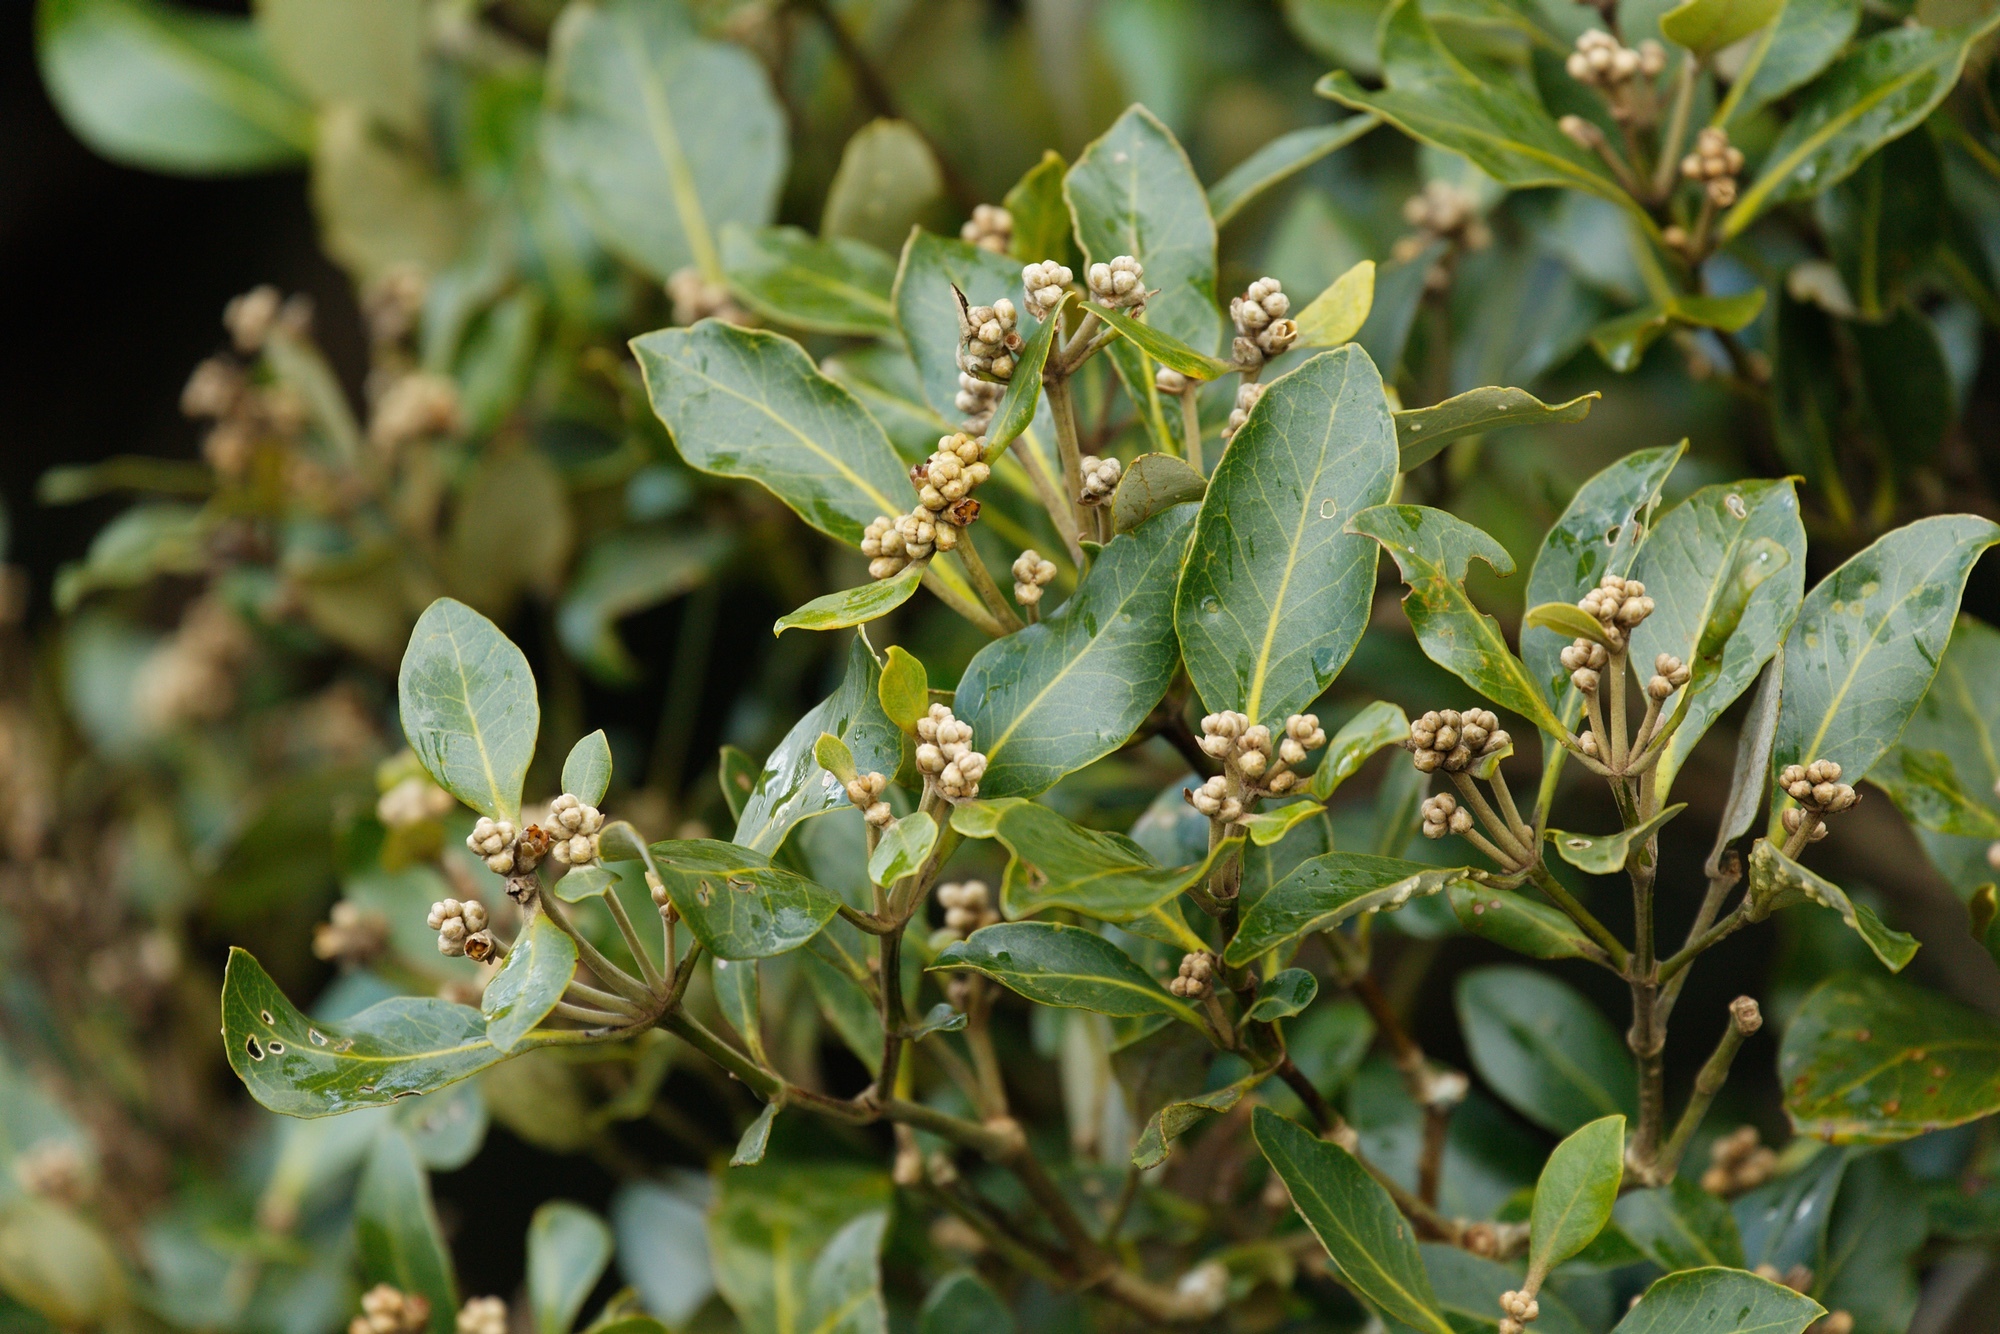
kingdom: Plantae
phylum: Tracheophyta
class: Magnoliopsida
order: Lamiales
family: Acanthaceae
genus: Avicennia
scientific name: Avicennia marina
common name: Gray mangrove
